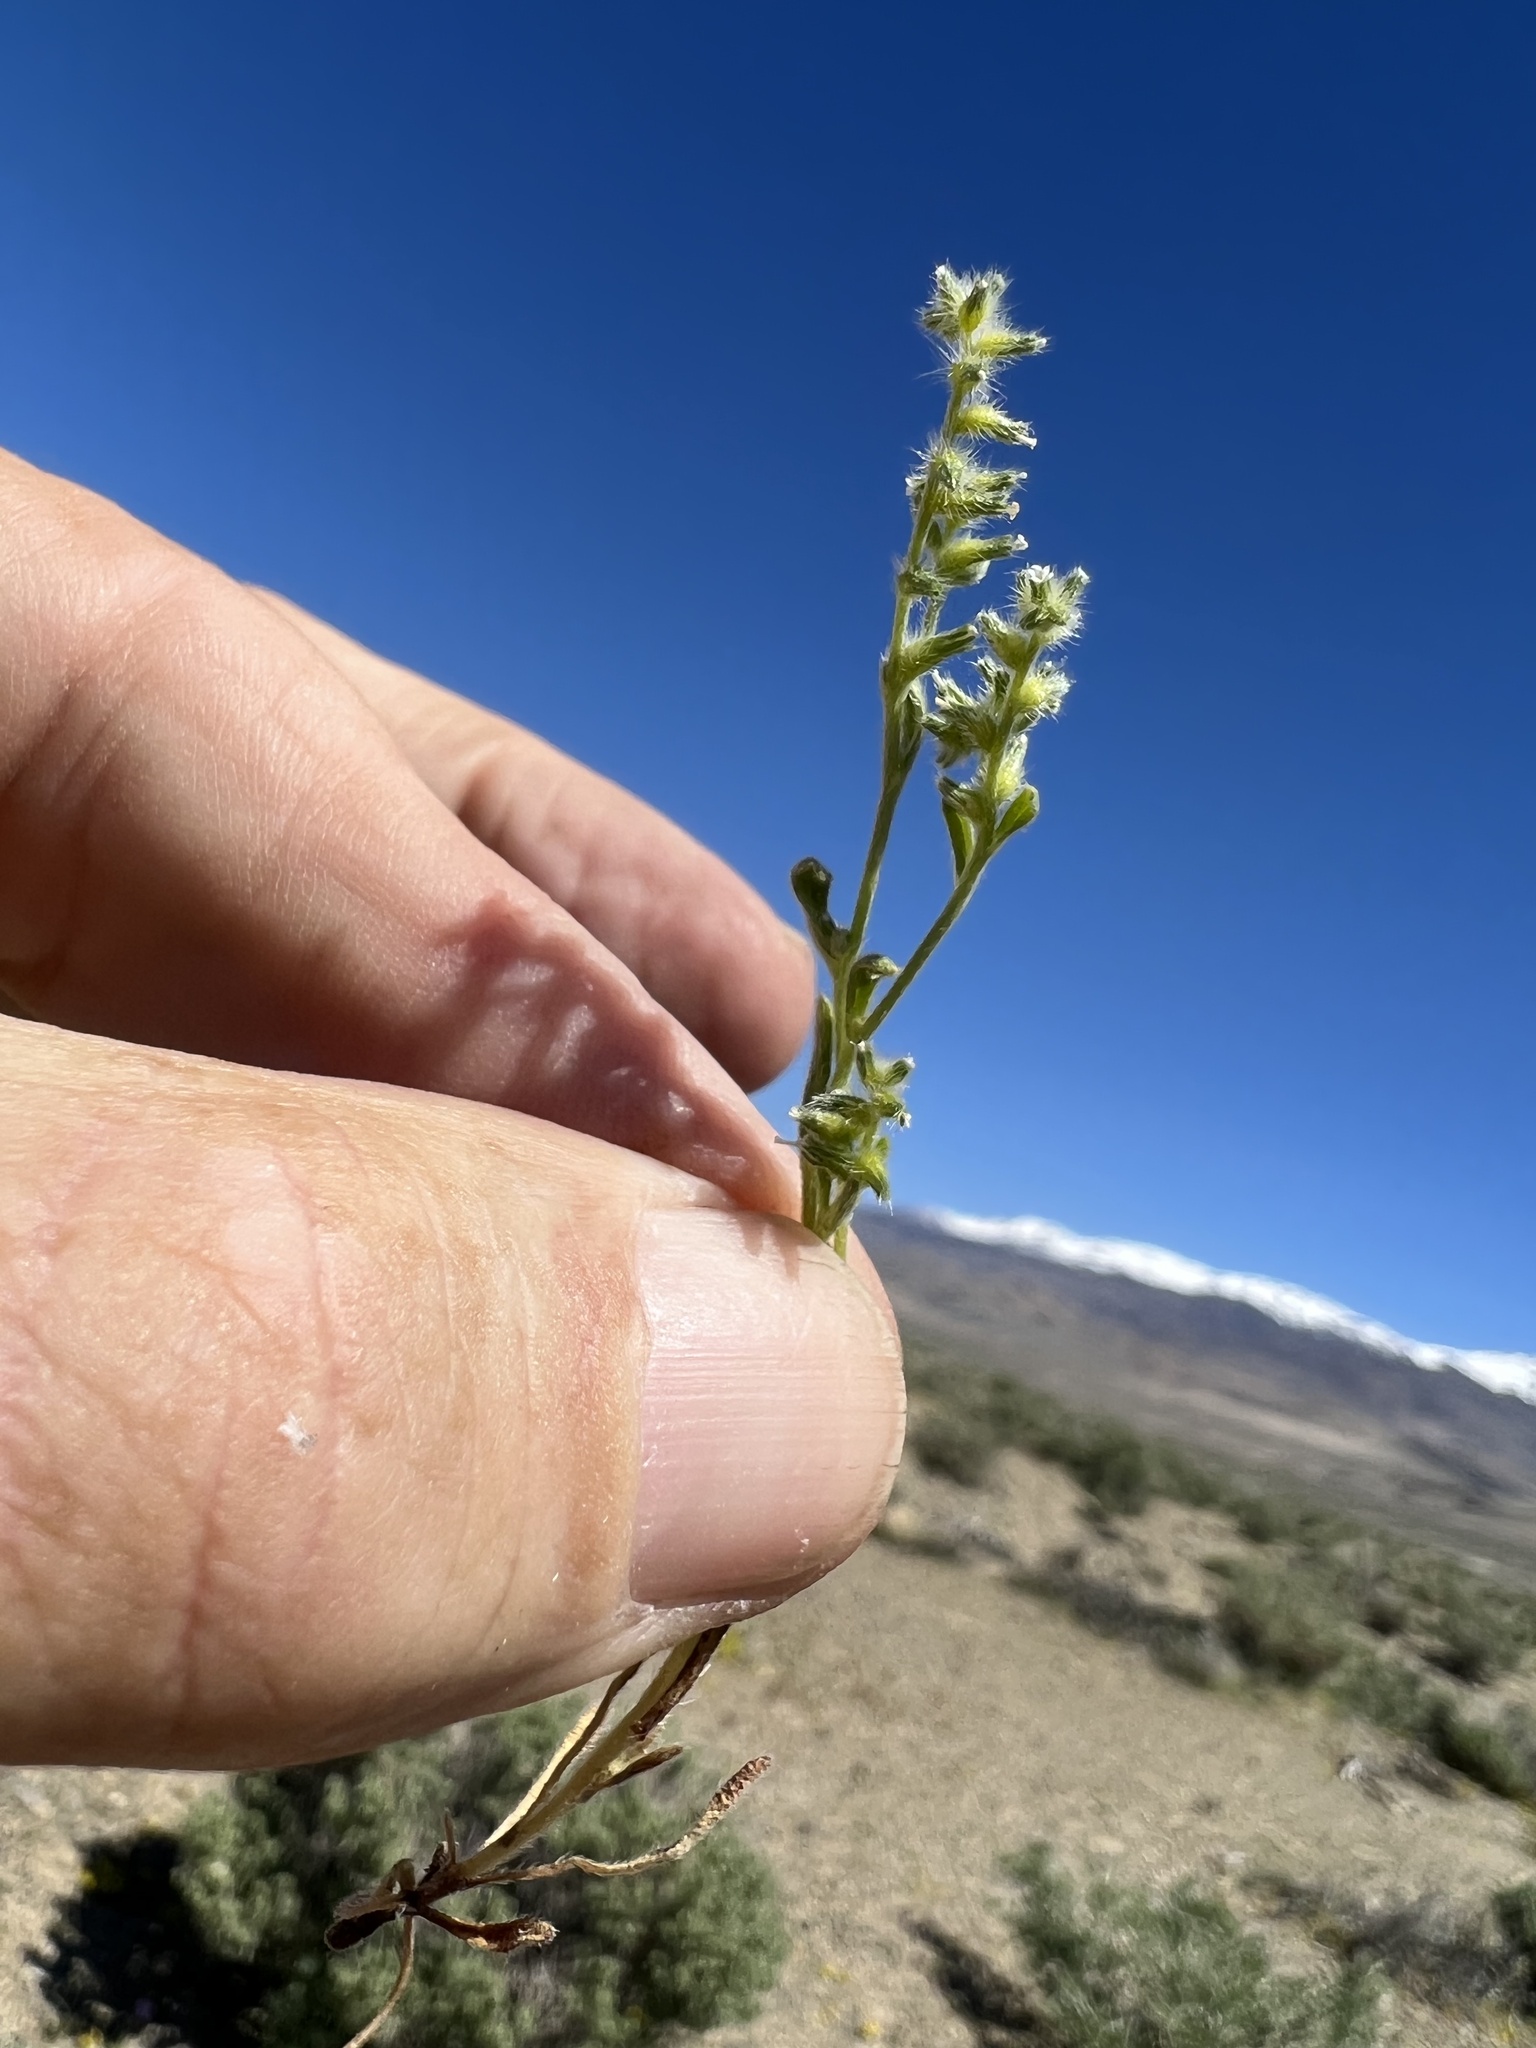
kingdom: Plantae
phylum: Tracheophyta
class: Magnoliopsida
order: Boraginales
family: Boraginaceae
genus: Cryptantha
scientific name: Cryptantha recurvata
